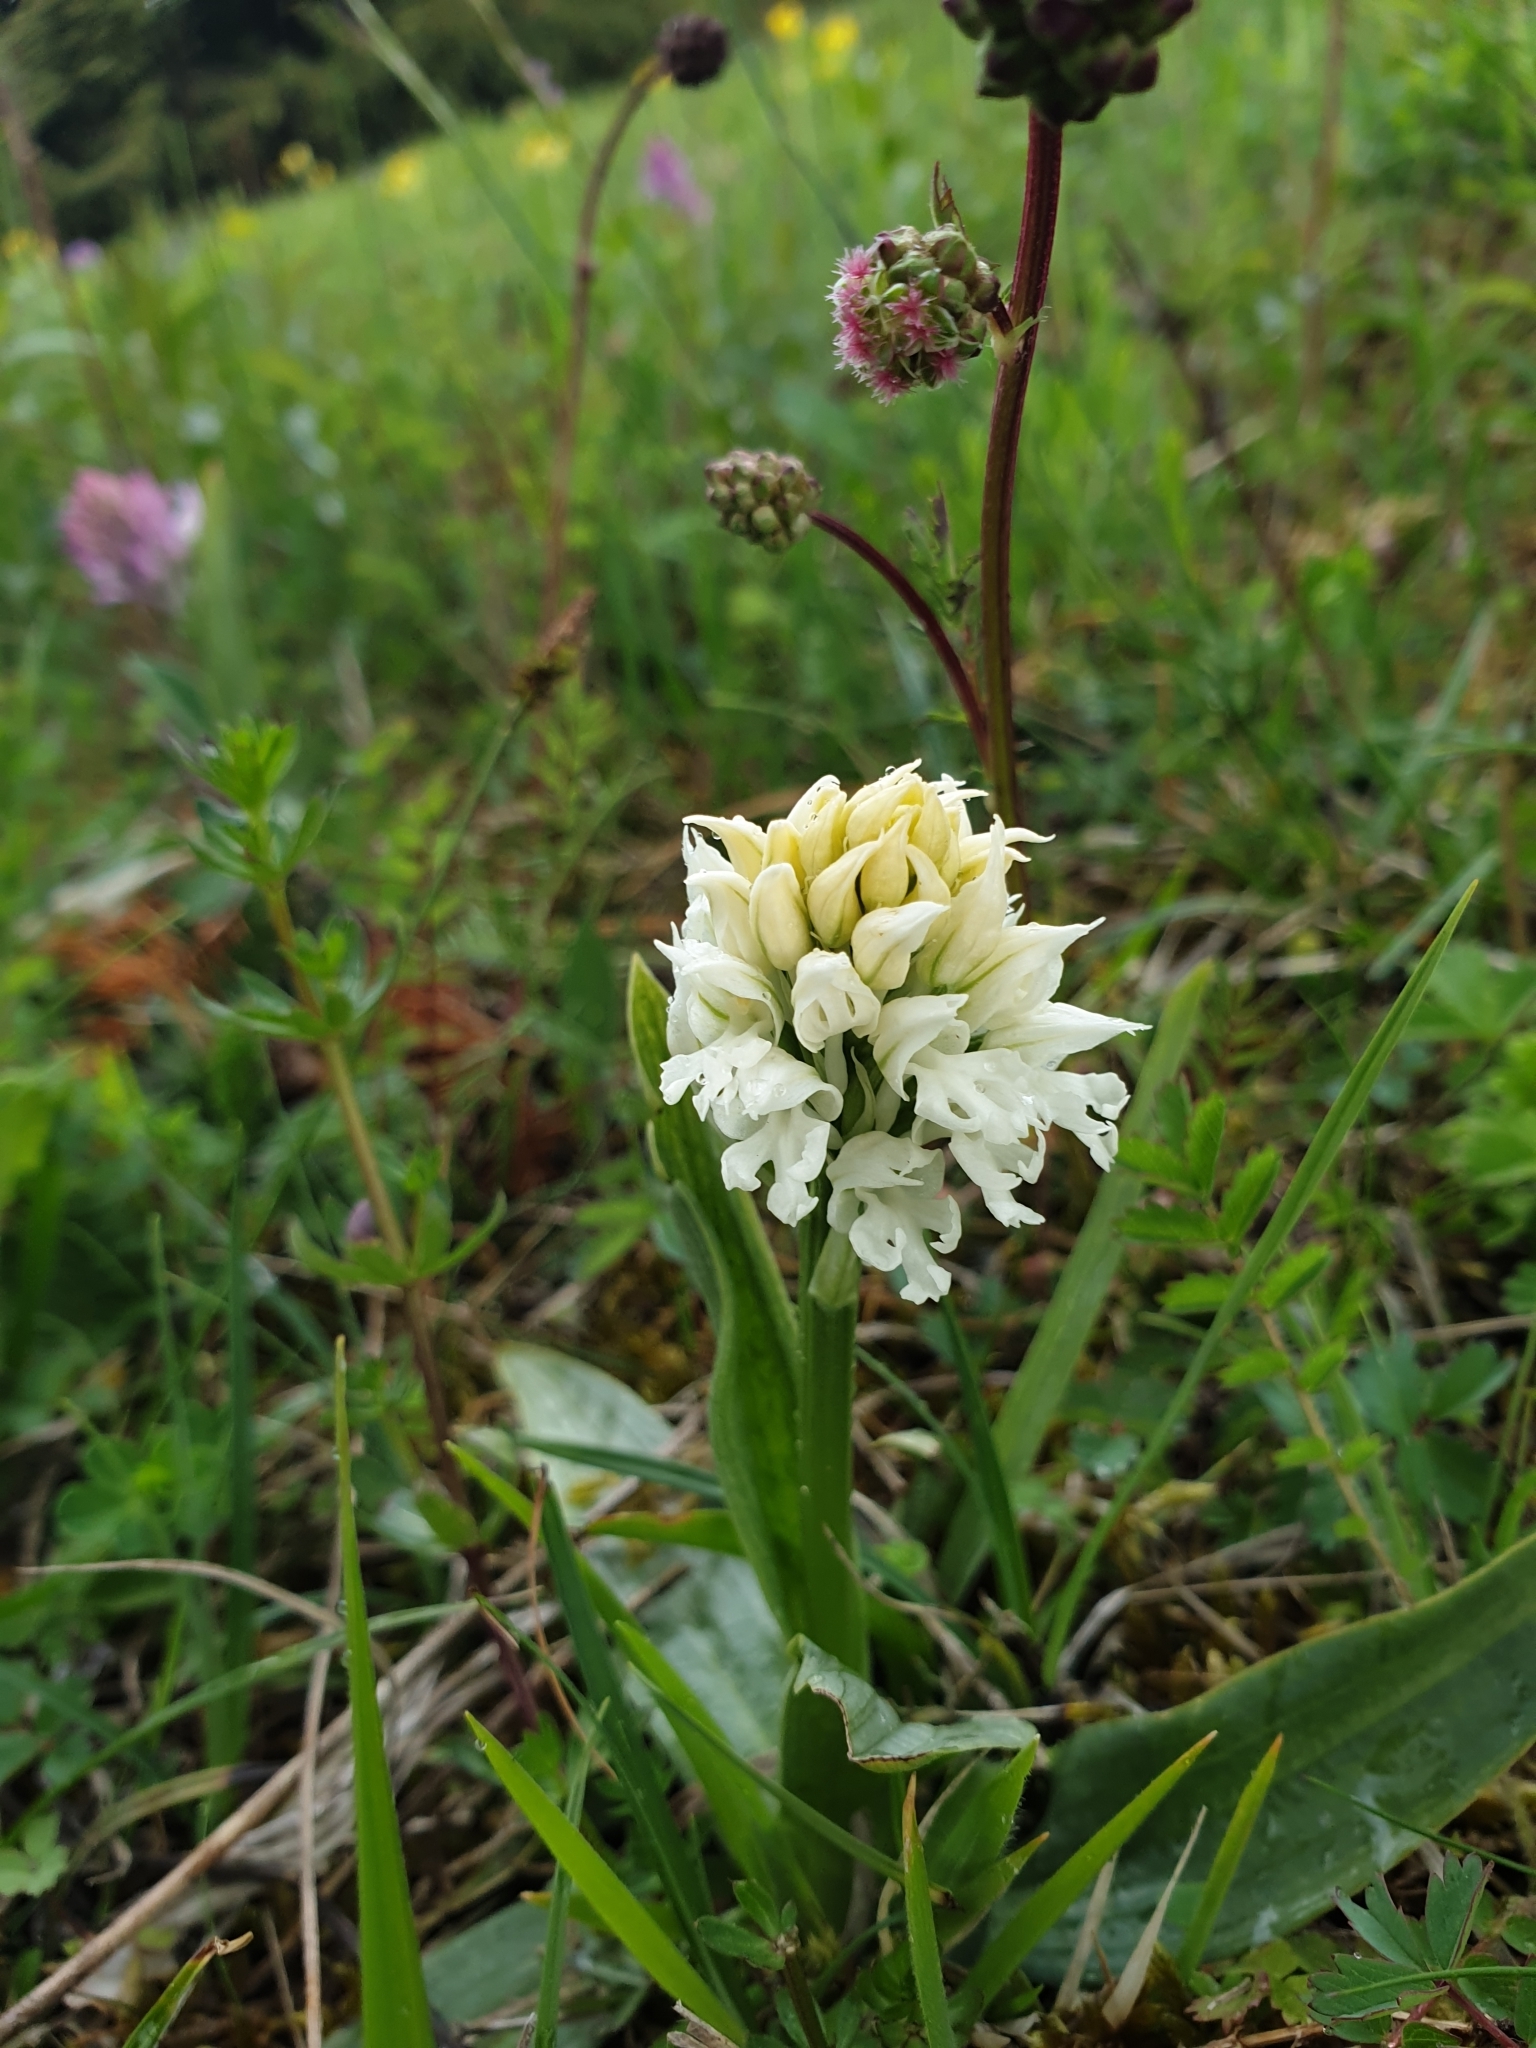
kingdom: Plantae
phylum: Tracheophyta
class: Liliopsida
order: Asparagales
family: Orchidaceae
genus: Neotinea
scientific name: Neotinea tridentata
